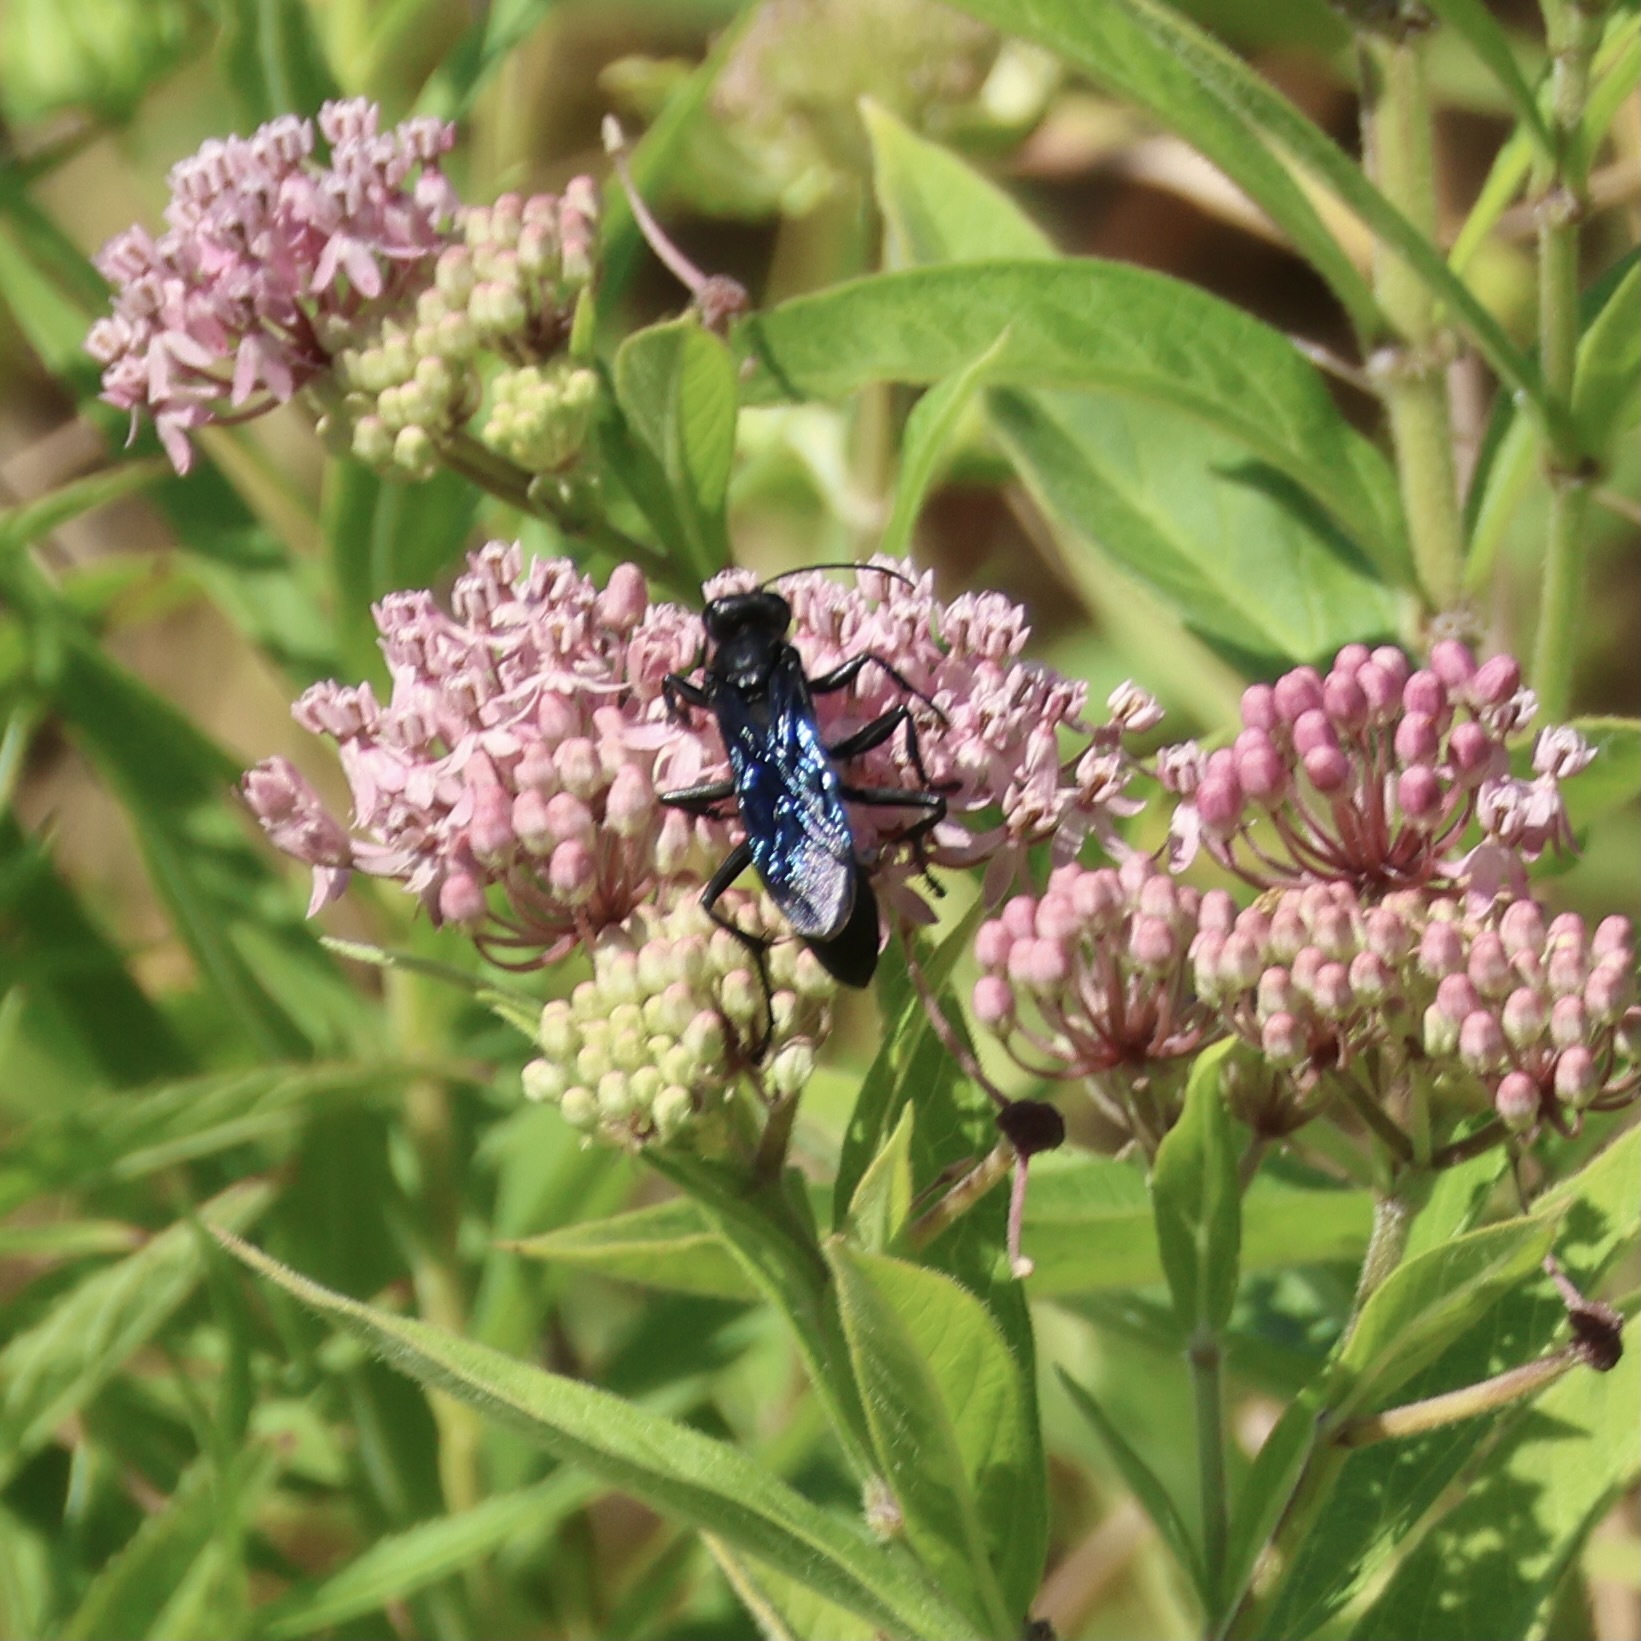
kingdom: Animalia
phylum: Arthropoda
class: Insecta
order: Hymenoptera
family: Sphecidae
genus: Sphex
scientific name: Sphex pensylvanicus
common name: Great black digger wasp
